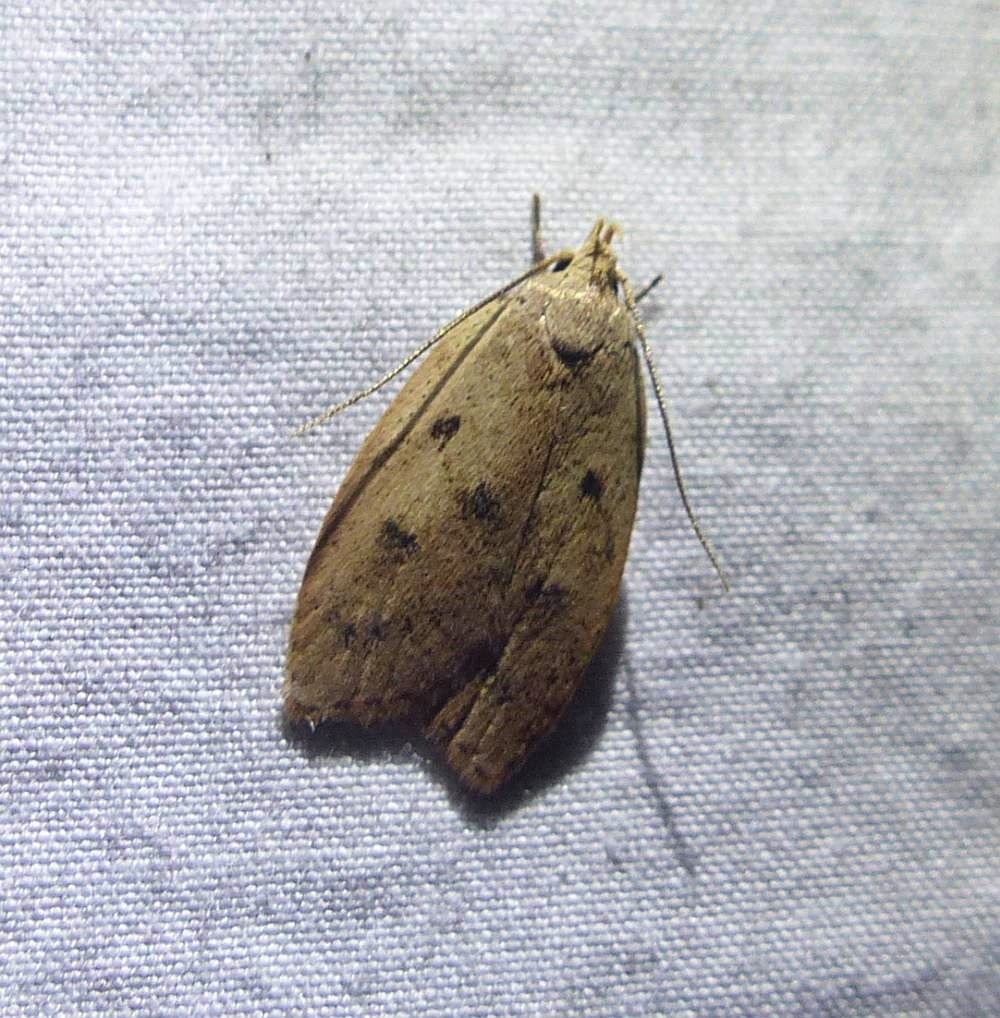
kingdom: Animalia
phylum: Arthropoda
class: Insecta
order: Lepidoptera
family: Peleopodidae
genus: Machimia
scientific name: Machimia tentoriferella
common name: Gold-striped leaftier moth
